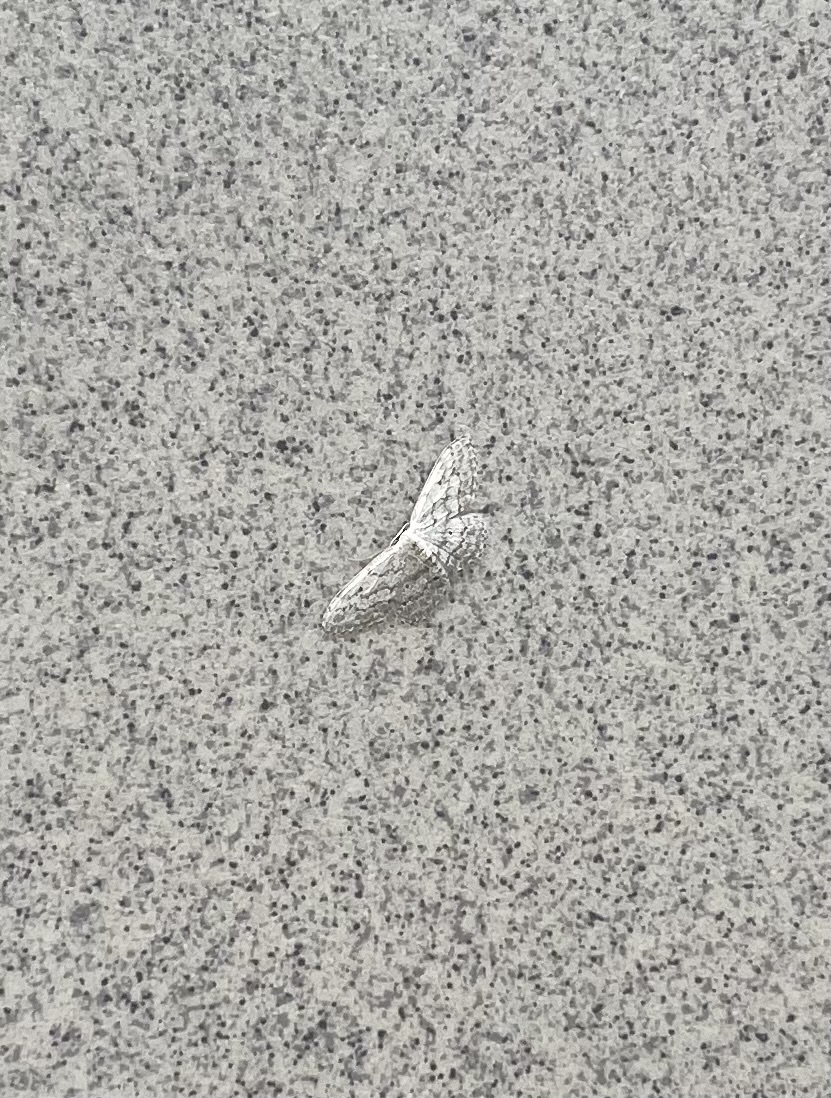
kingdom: Animalia
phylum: Arthropoda
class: Insecta
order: Lepidoptera
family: Geometridae
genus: Idaea
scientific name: Idaea seriata
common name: Small dusty wave
